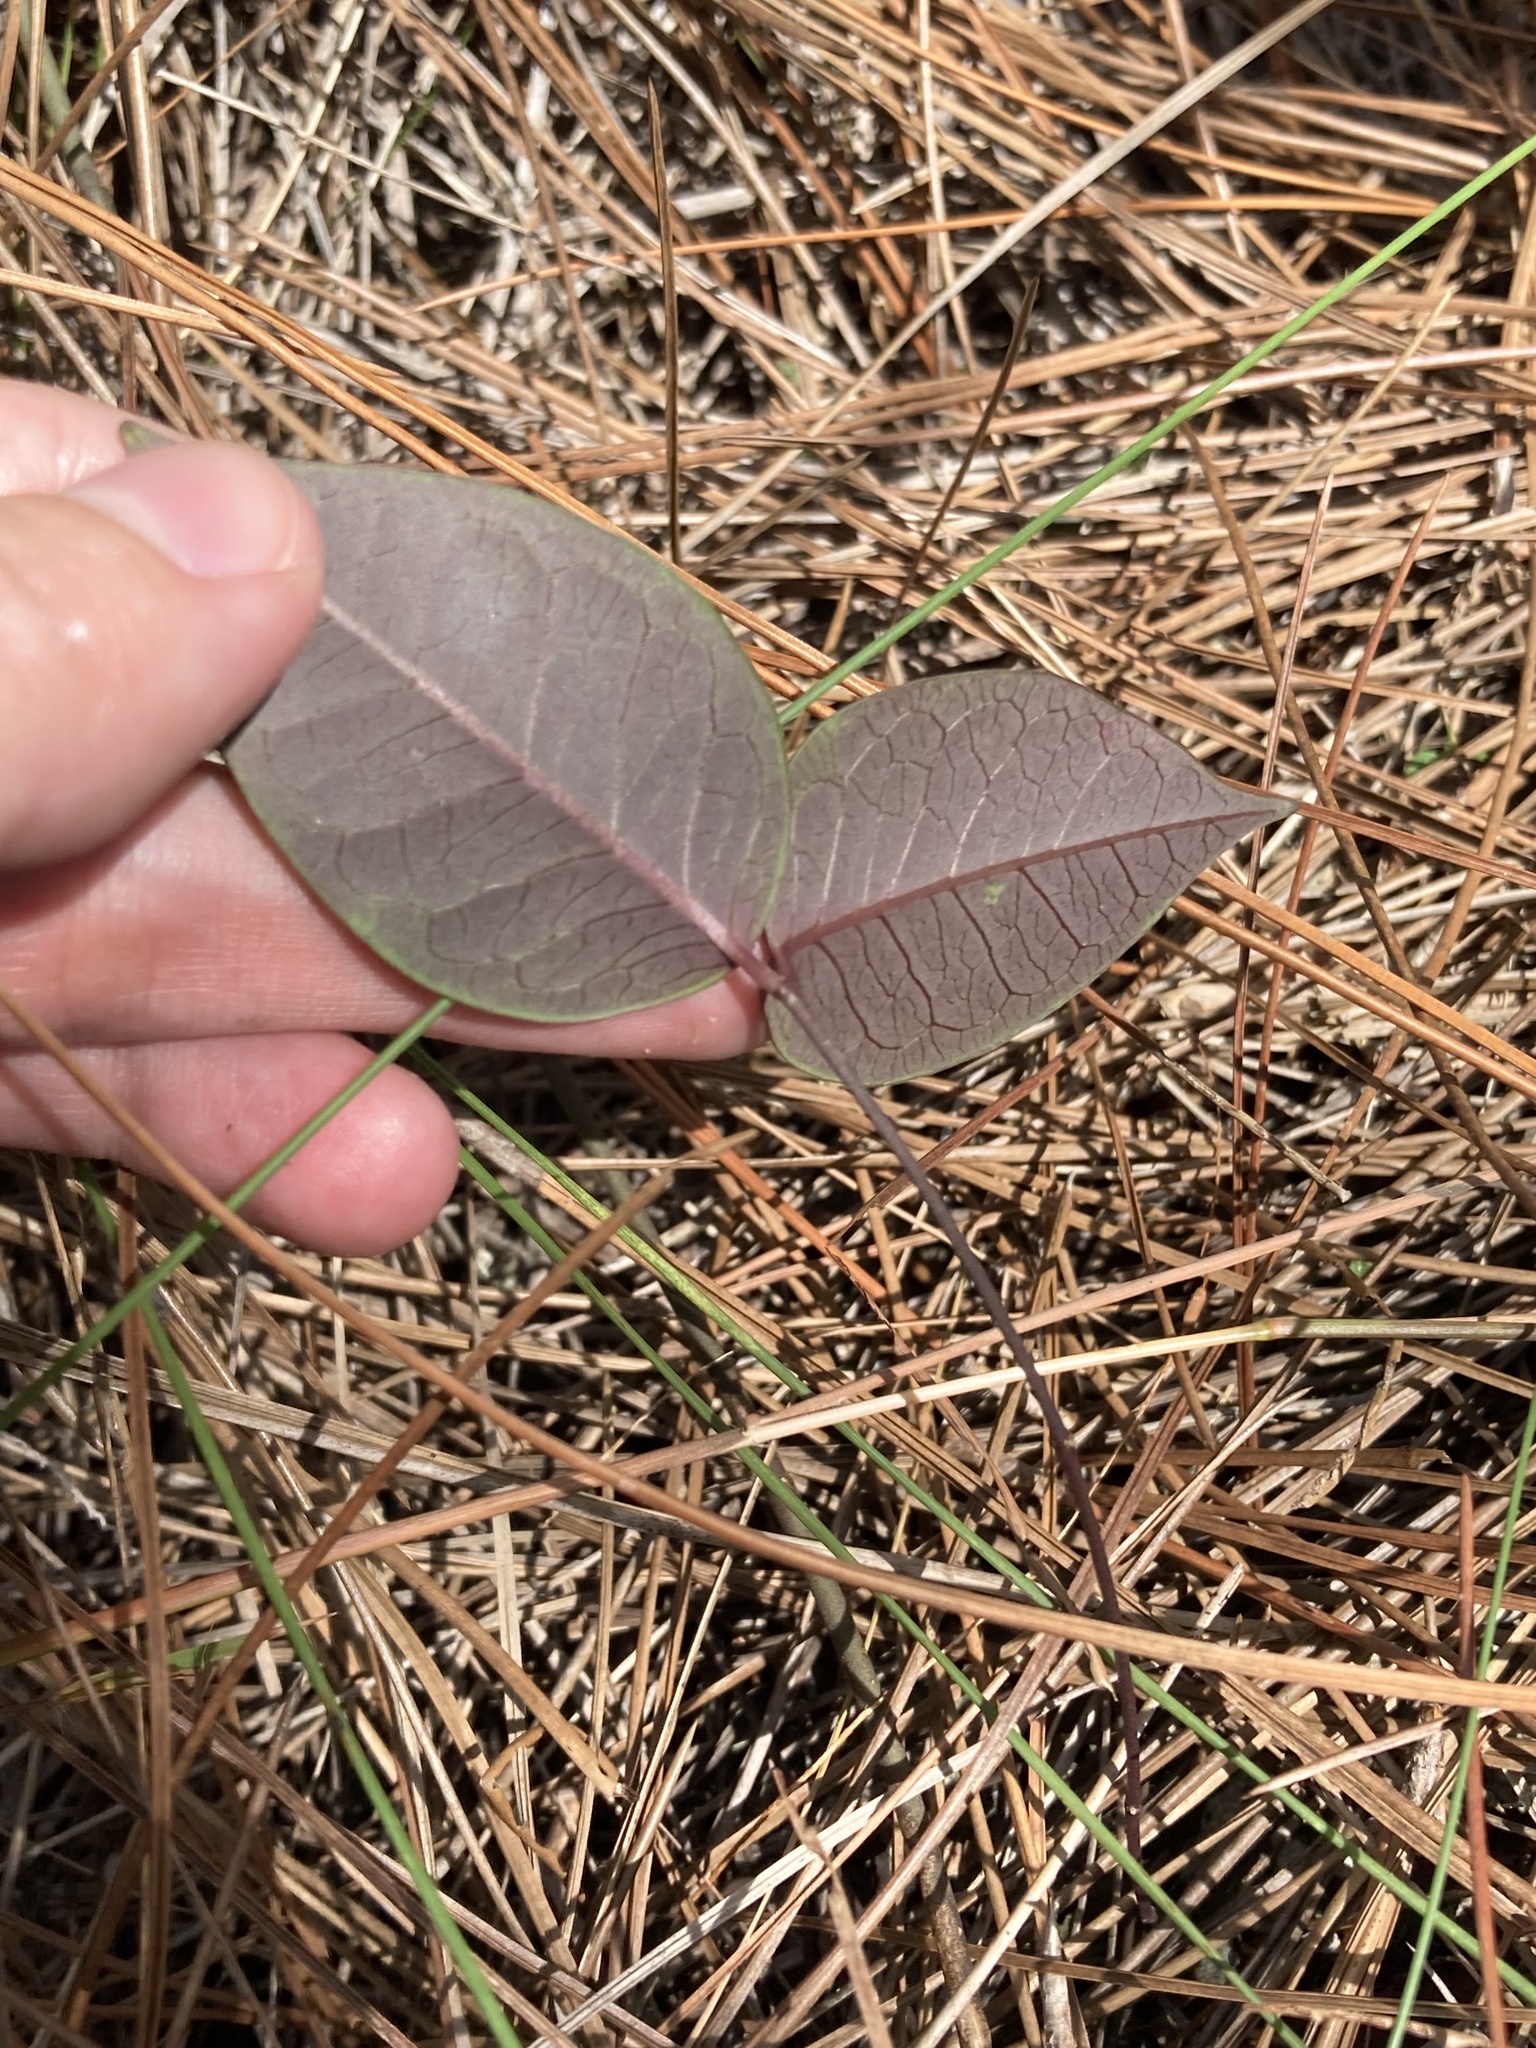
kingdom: Plantae
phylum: Tracheophyta
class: Magnoliopsida
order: Gentianales
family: Apocynaceae
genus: Echites
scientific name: Echites umbellatus
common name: Devil's potato
